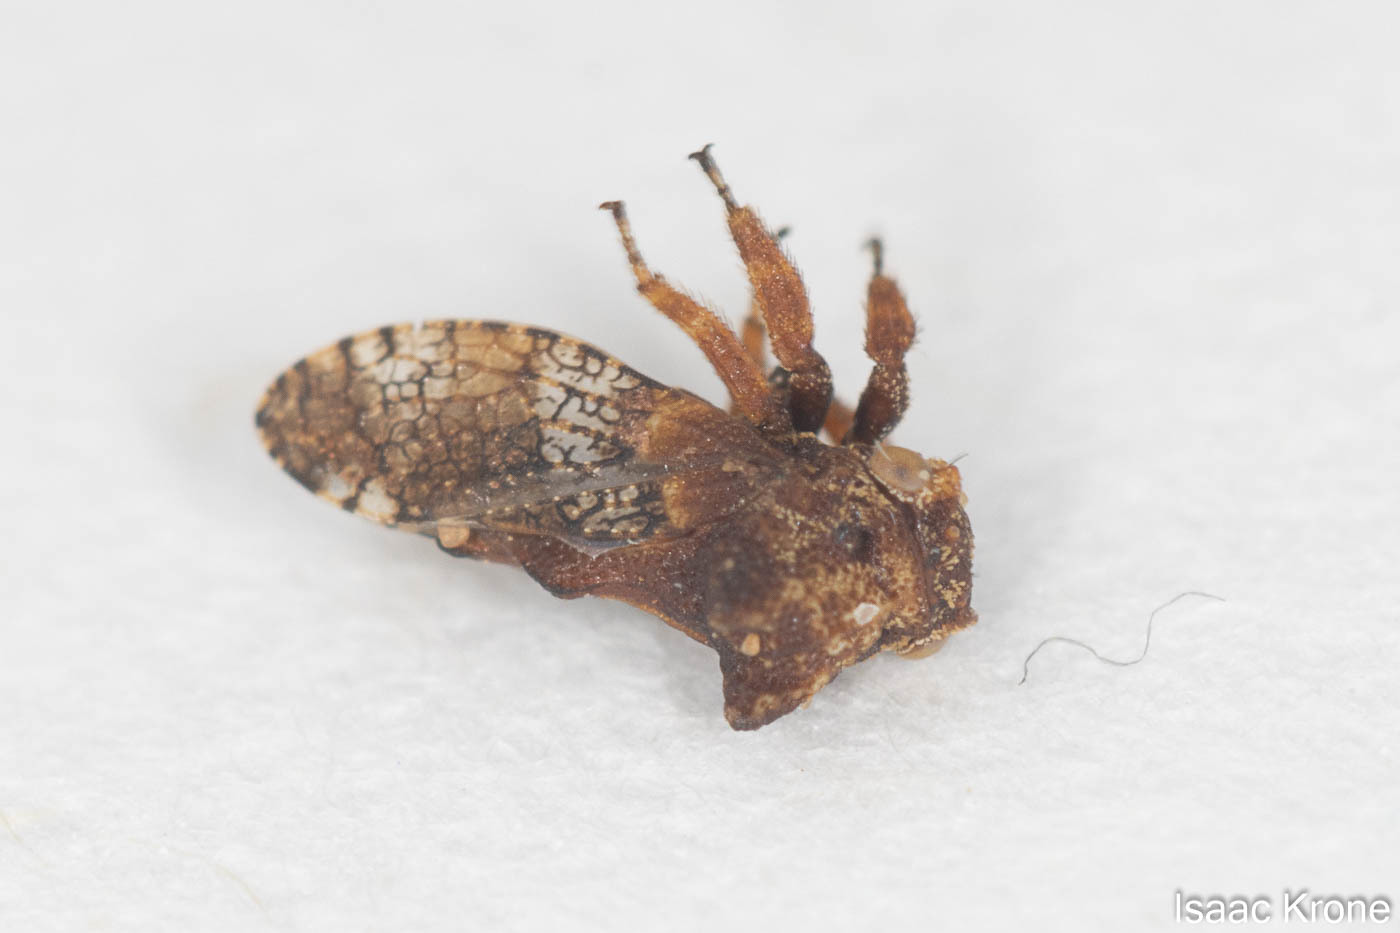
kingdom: Animalia
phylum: Arthropoda
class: Insecta
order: Hemiptera
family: Membracidae
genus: Multareis
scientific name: Multareis cornutus
